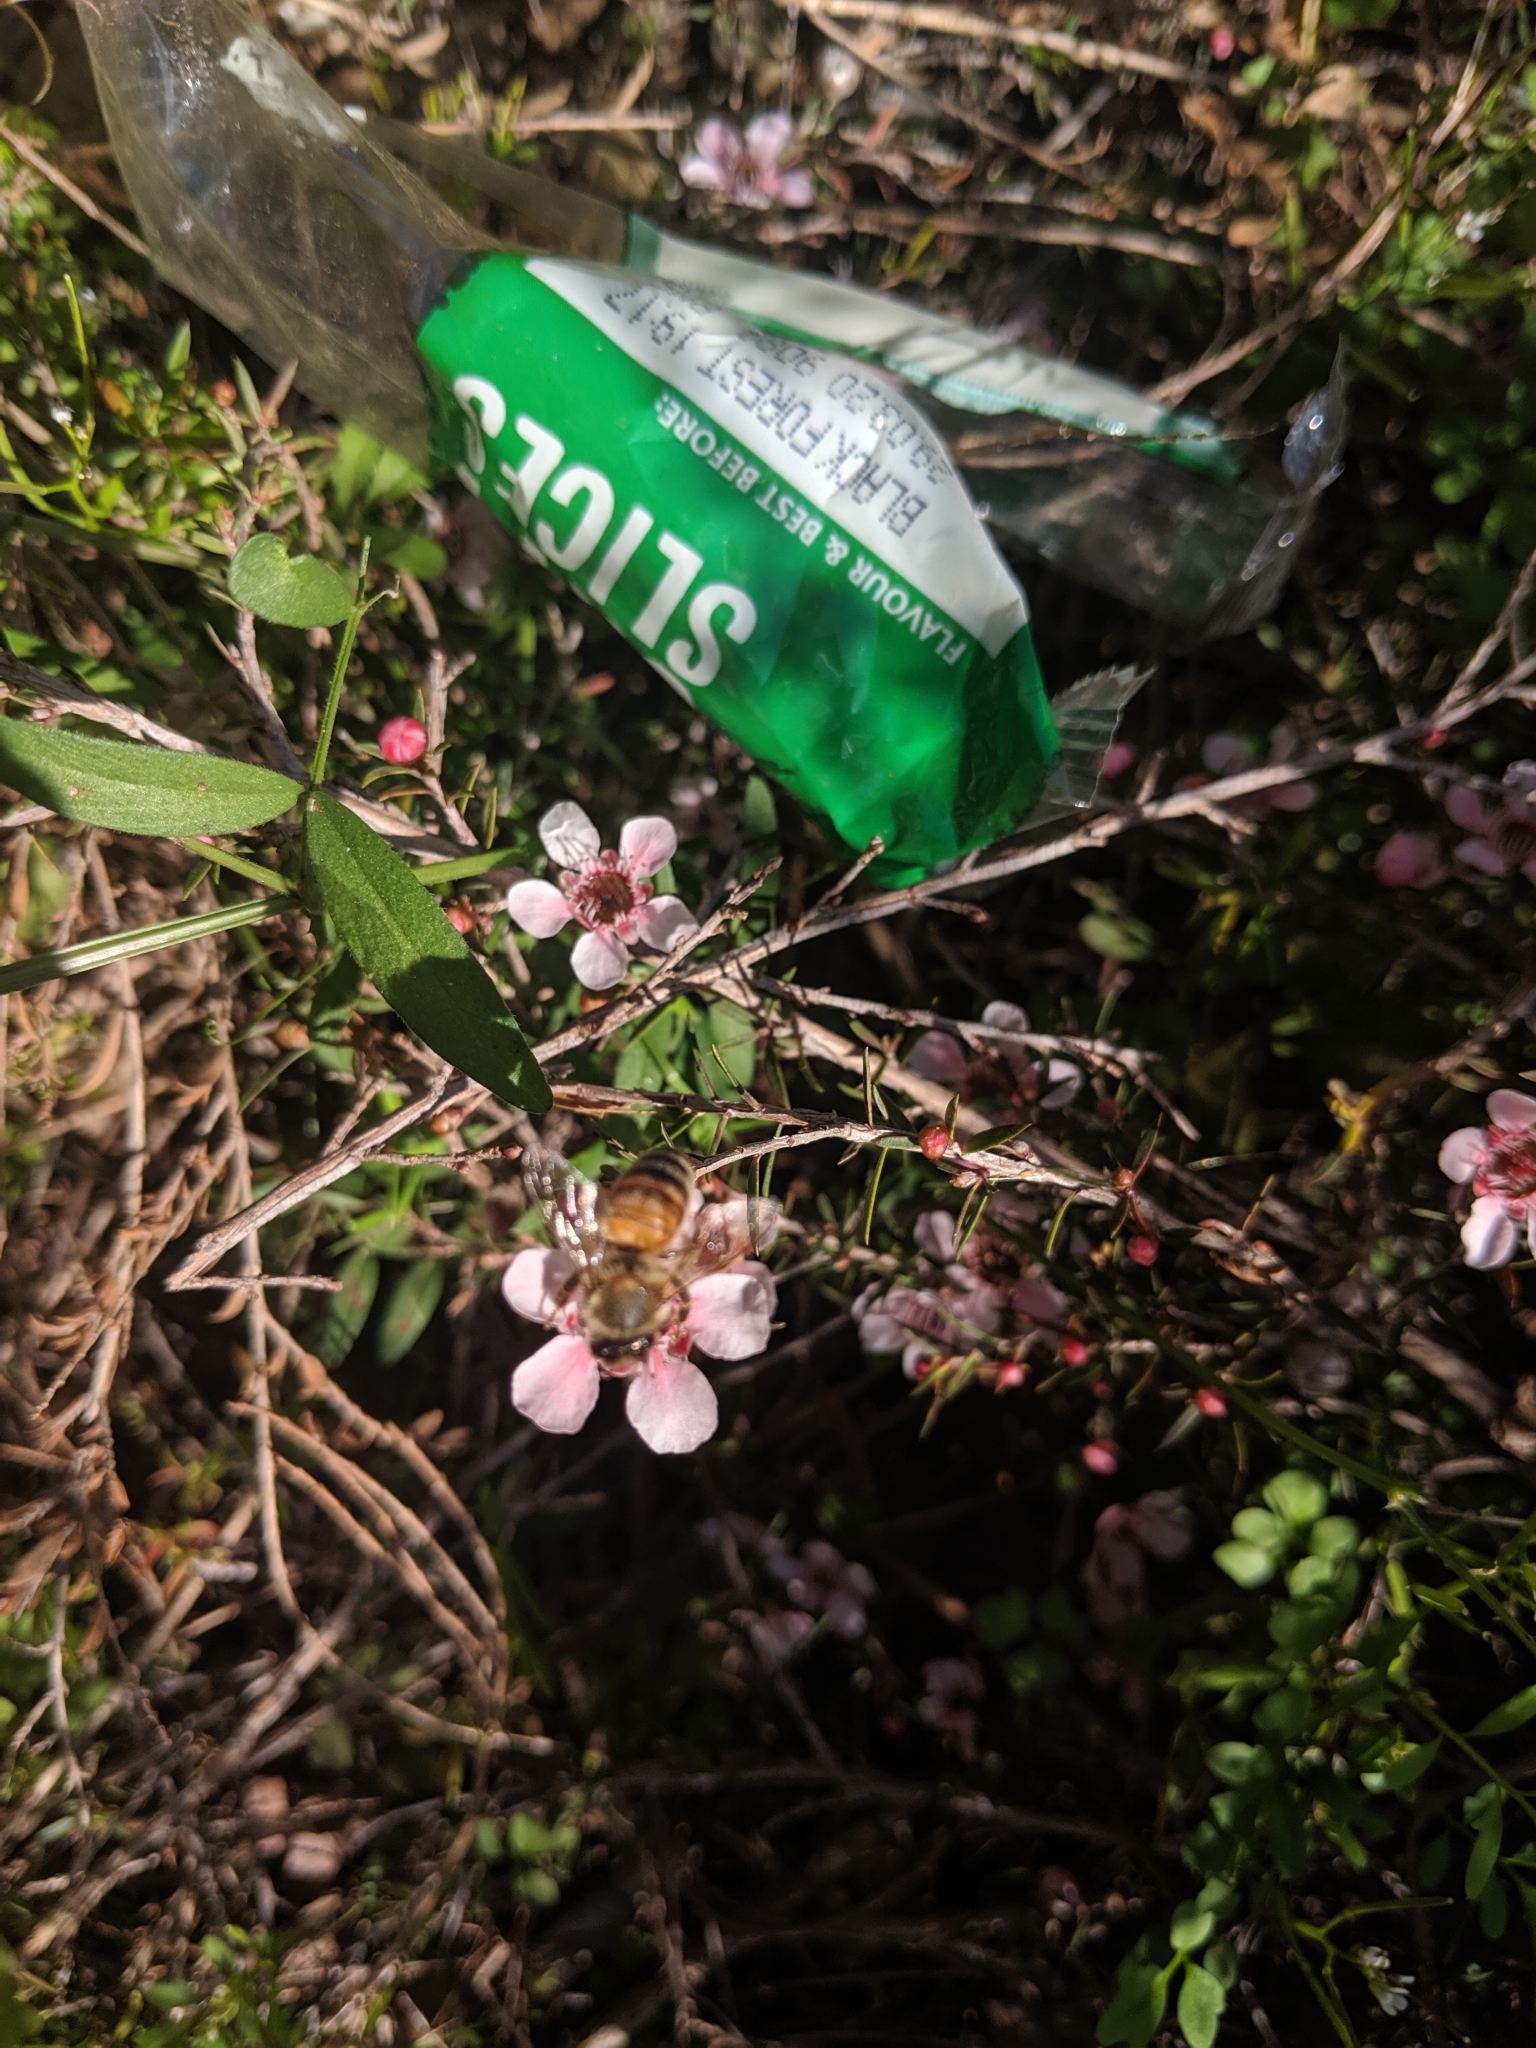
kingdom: Animalia
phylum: Arthropoda
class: Insecta
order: Hymenoptera
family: Apidae
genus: Apis
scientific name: Apis mellifera
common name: Honey bee
